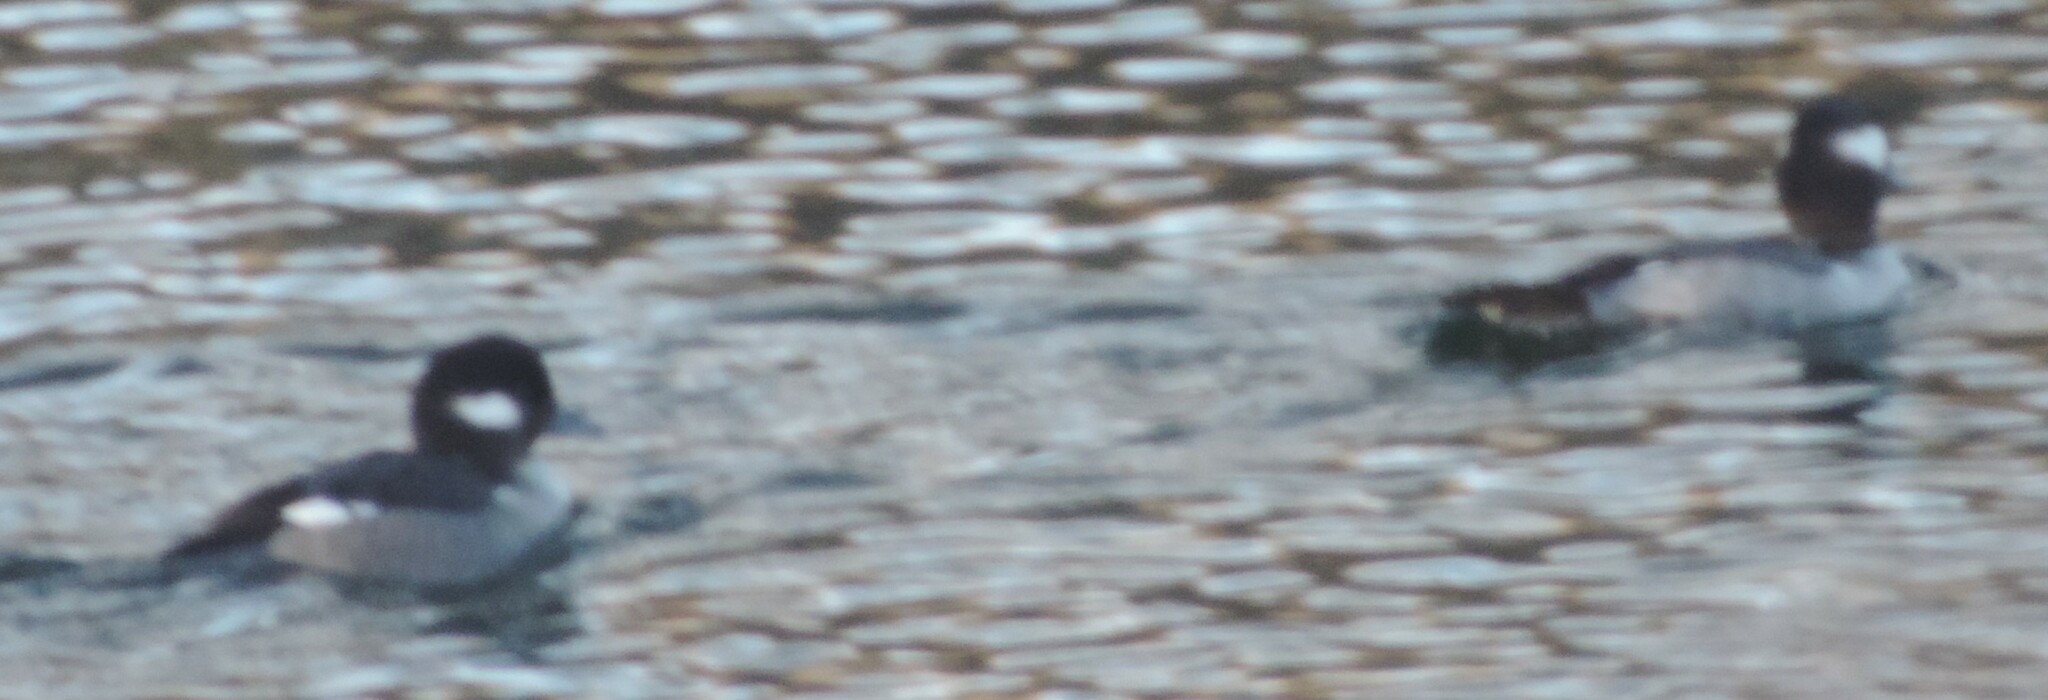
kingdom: Animalia
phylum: Chordata
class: Aves
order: Anseriformes
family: Anatidae
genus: Bucephala
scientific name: Bucephala albeola
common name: Bufflehead
